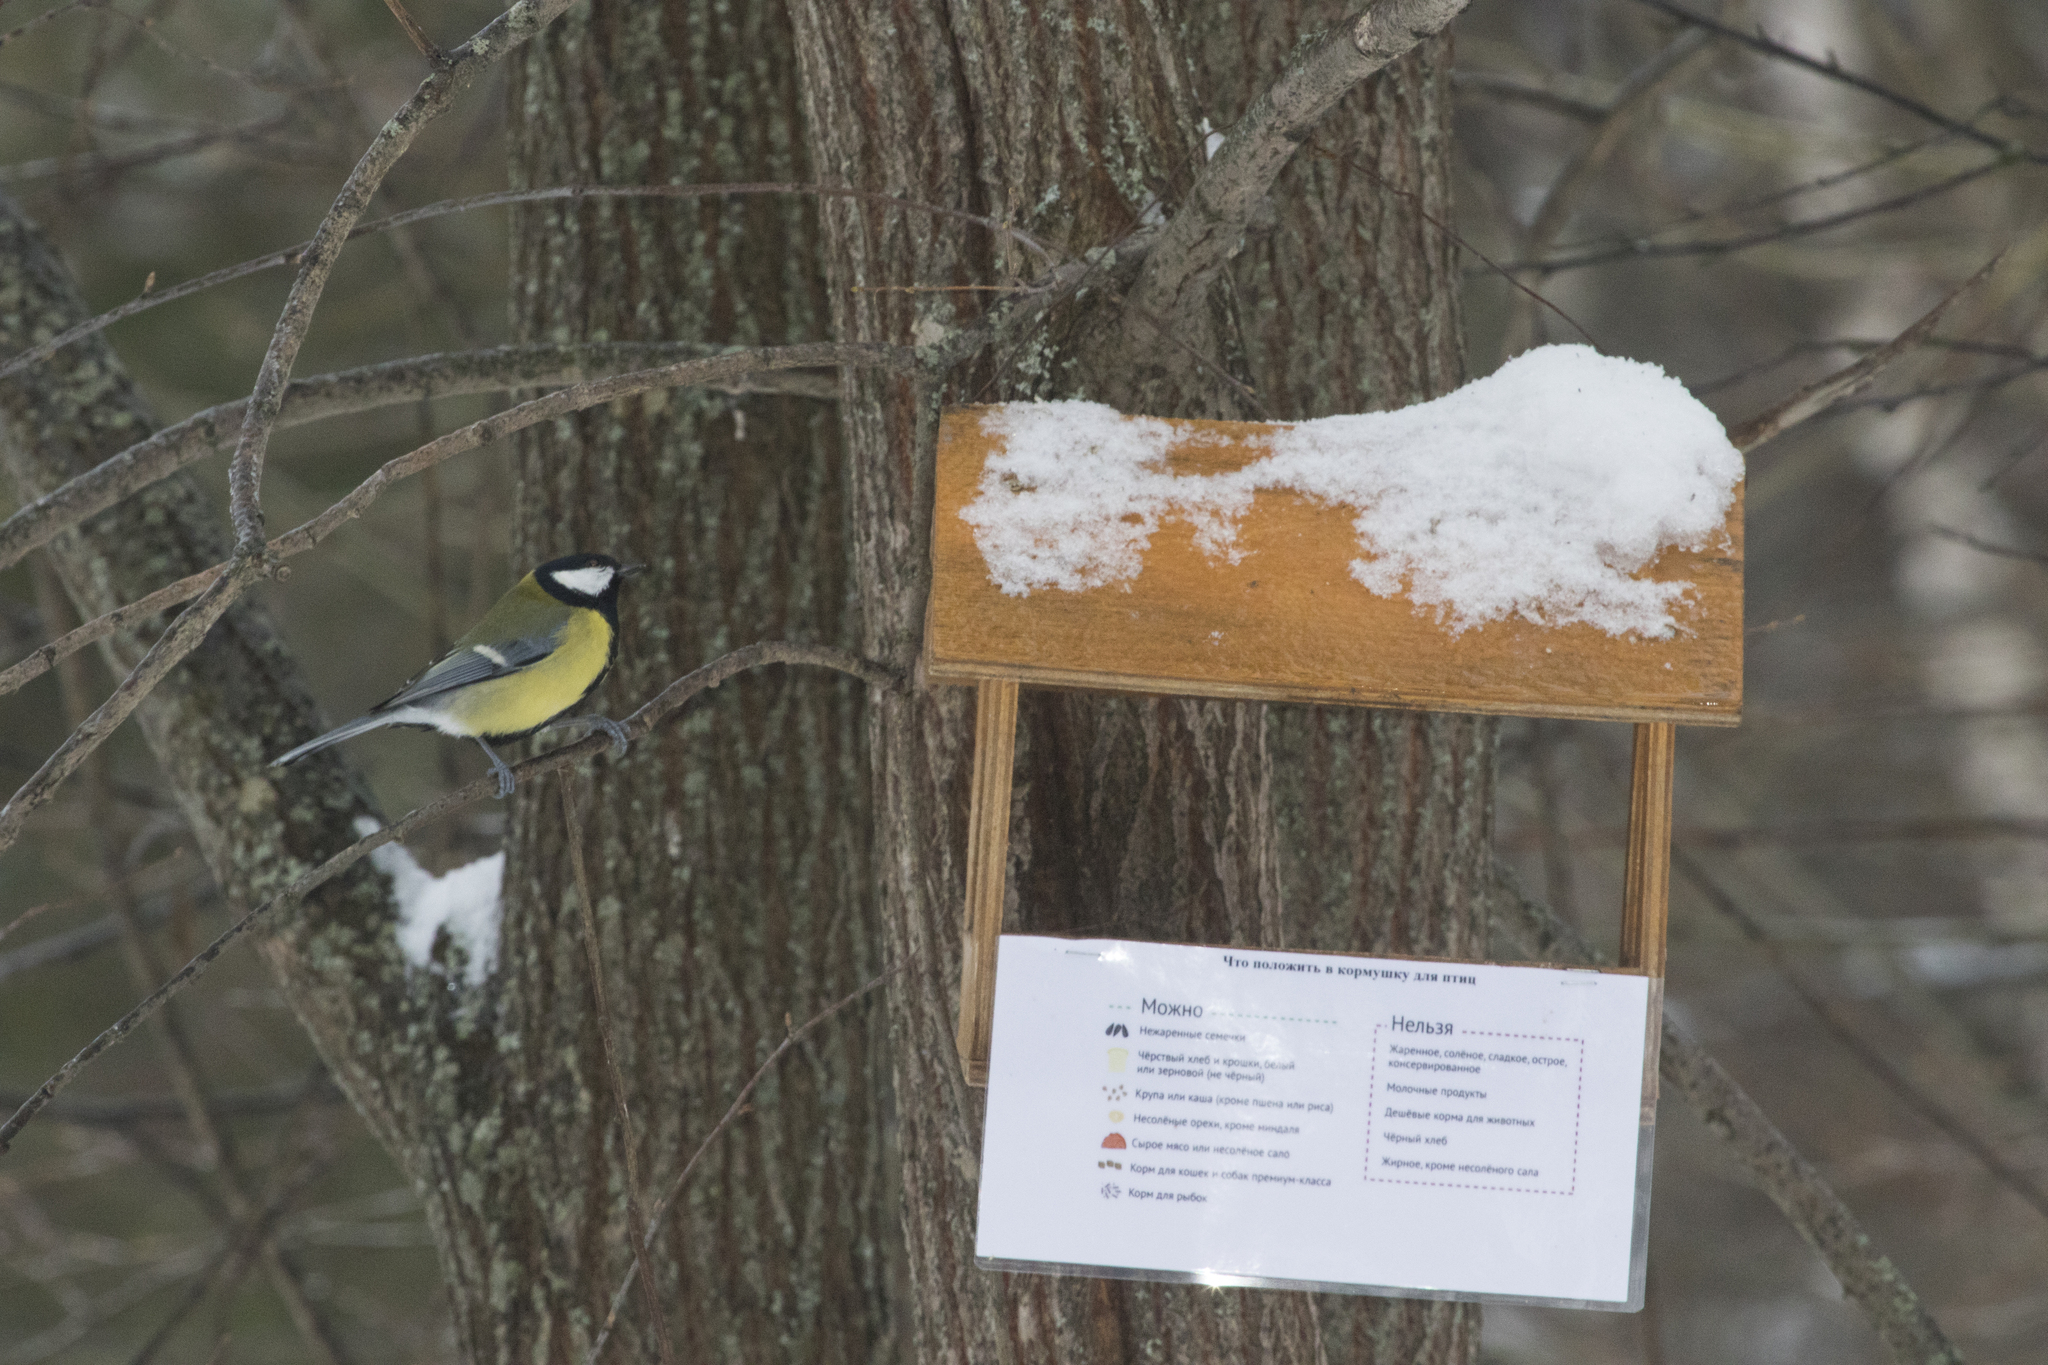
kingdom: Animalia
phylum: Chordata
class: Aves
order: Passeriformes
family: Paridae
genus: Parus
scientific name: Parus major
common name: Great tit
